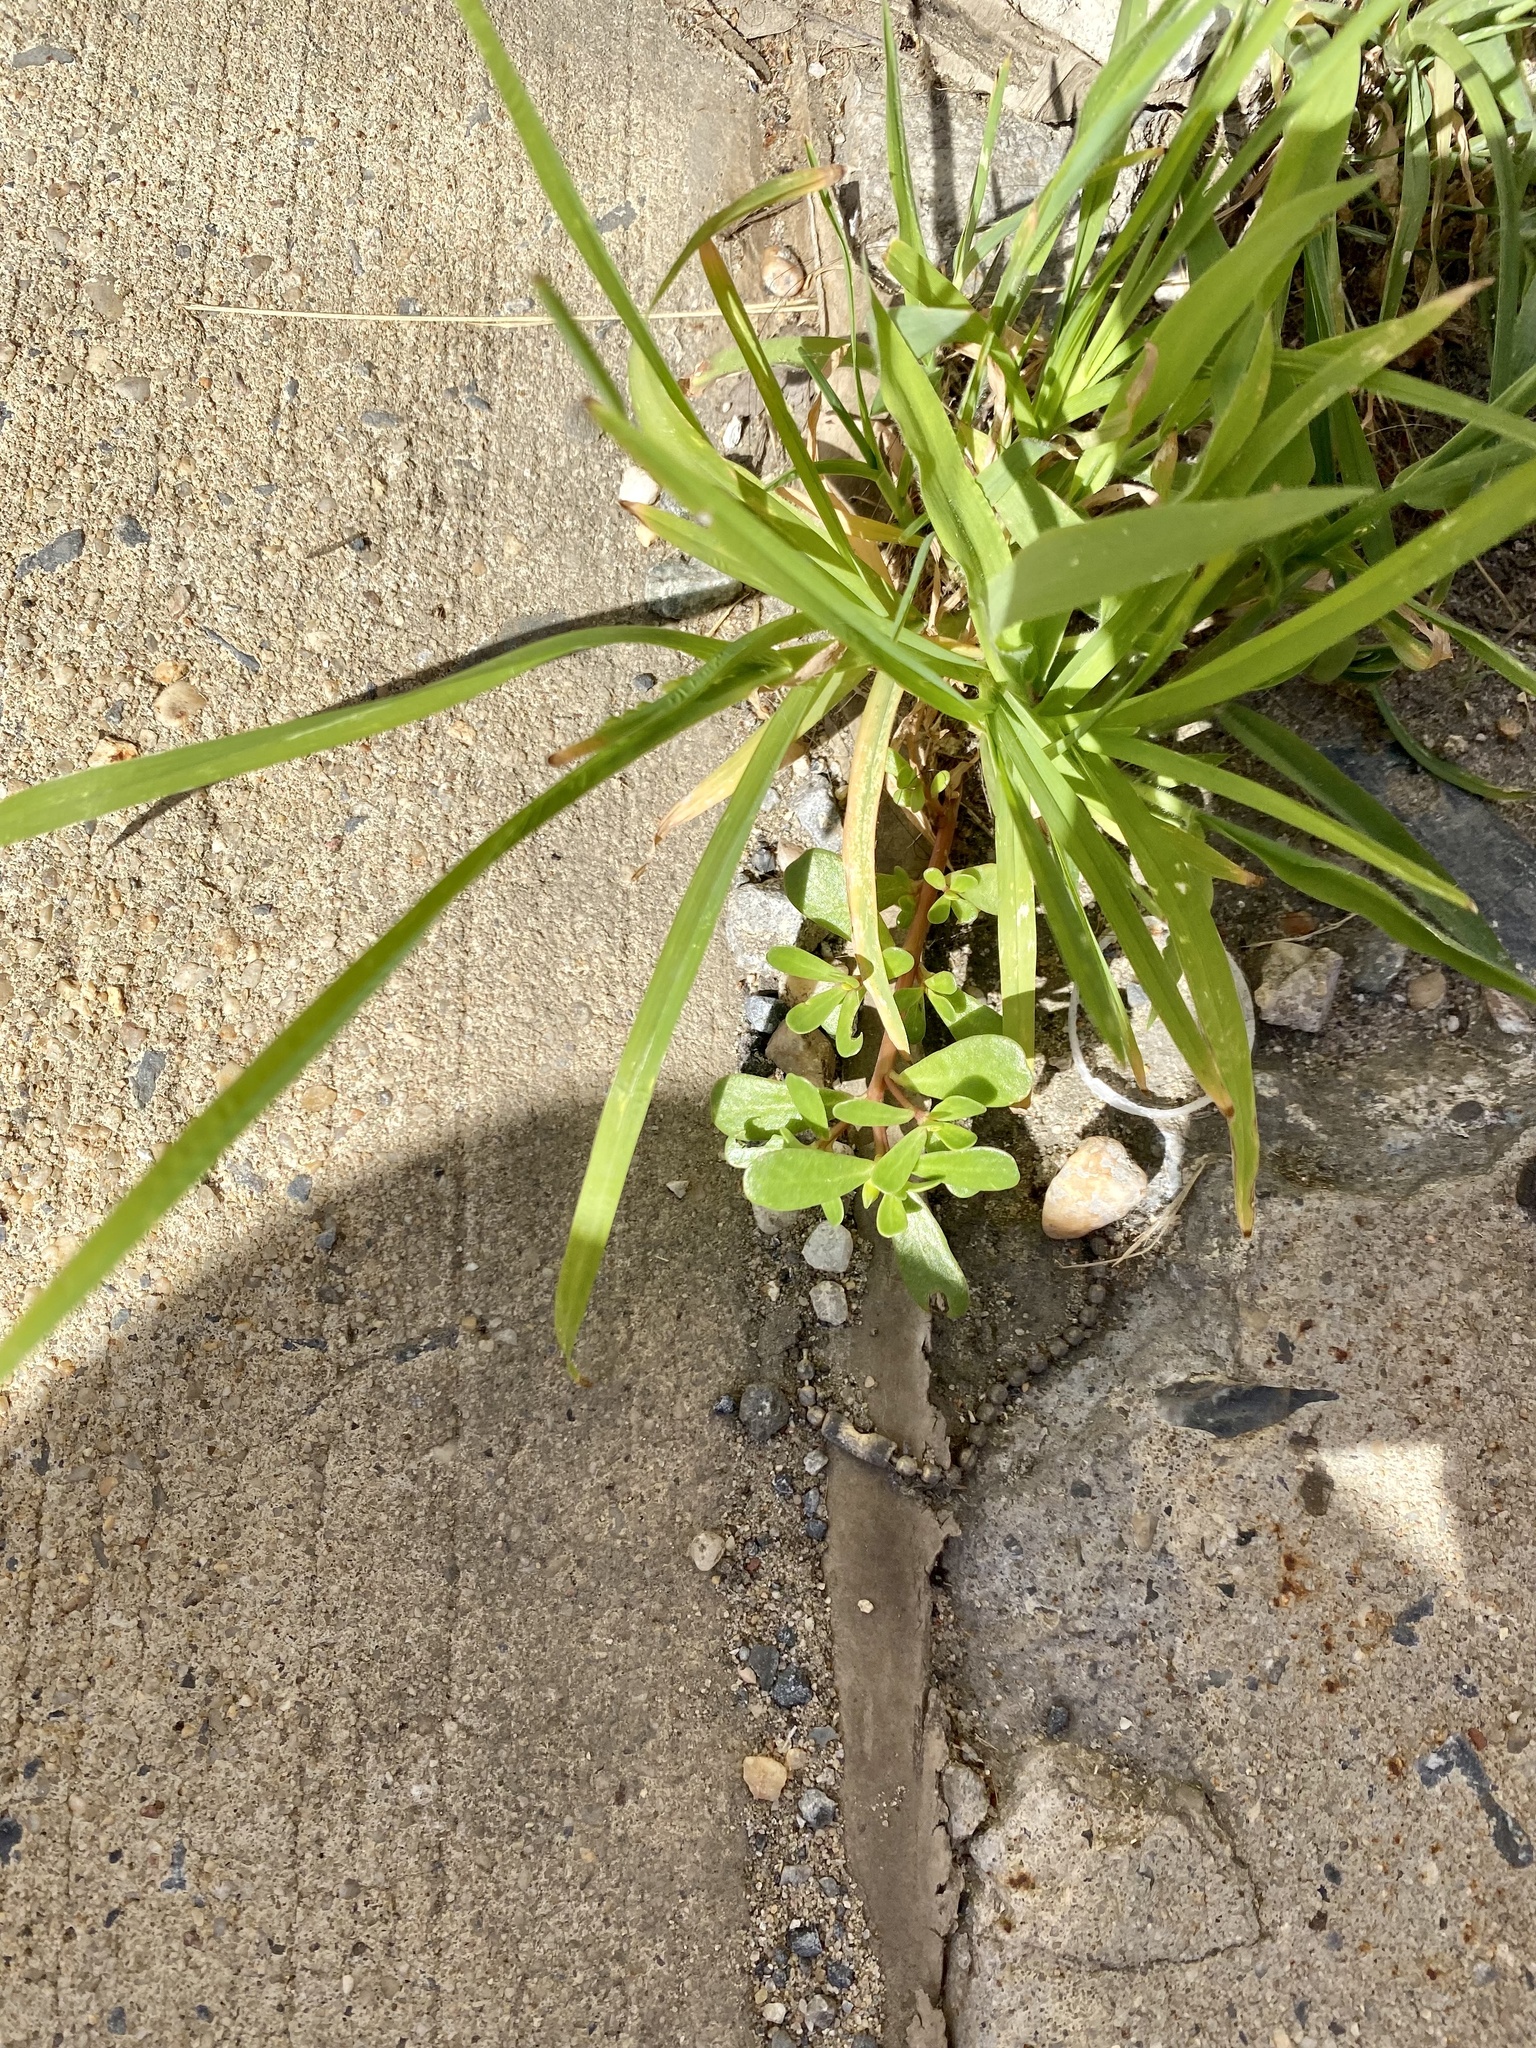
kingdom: Plantae
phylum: Tracheophyta
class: Magnoliopsida
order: Caryophyllales
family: Portulacaceae
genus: Portulaca
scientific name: Portulaca oleracea
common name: Common purslane
